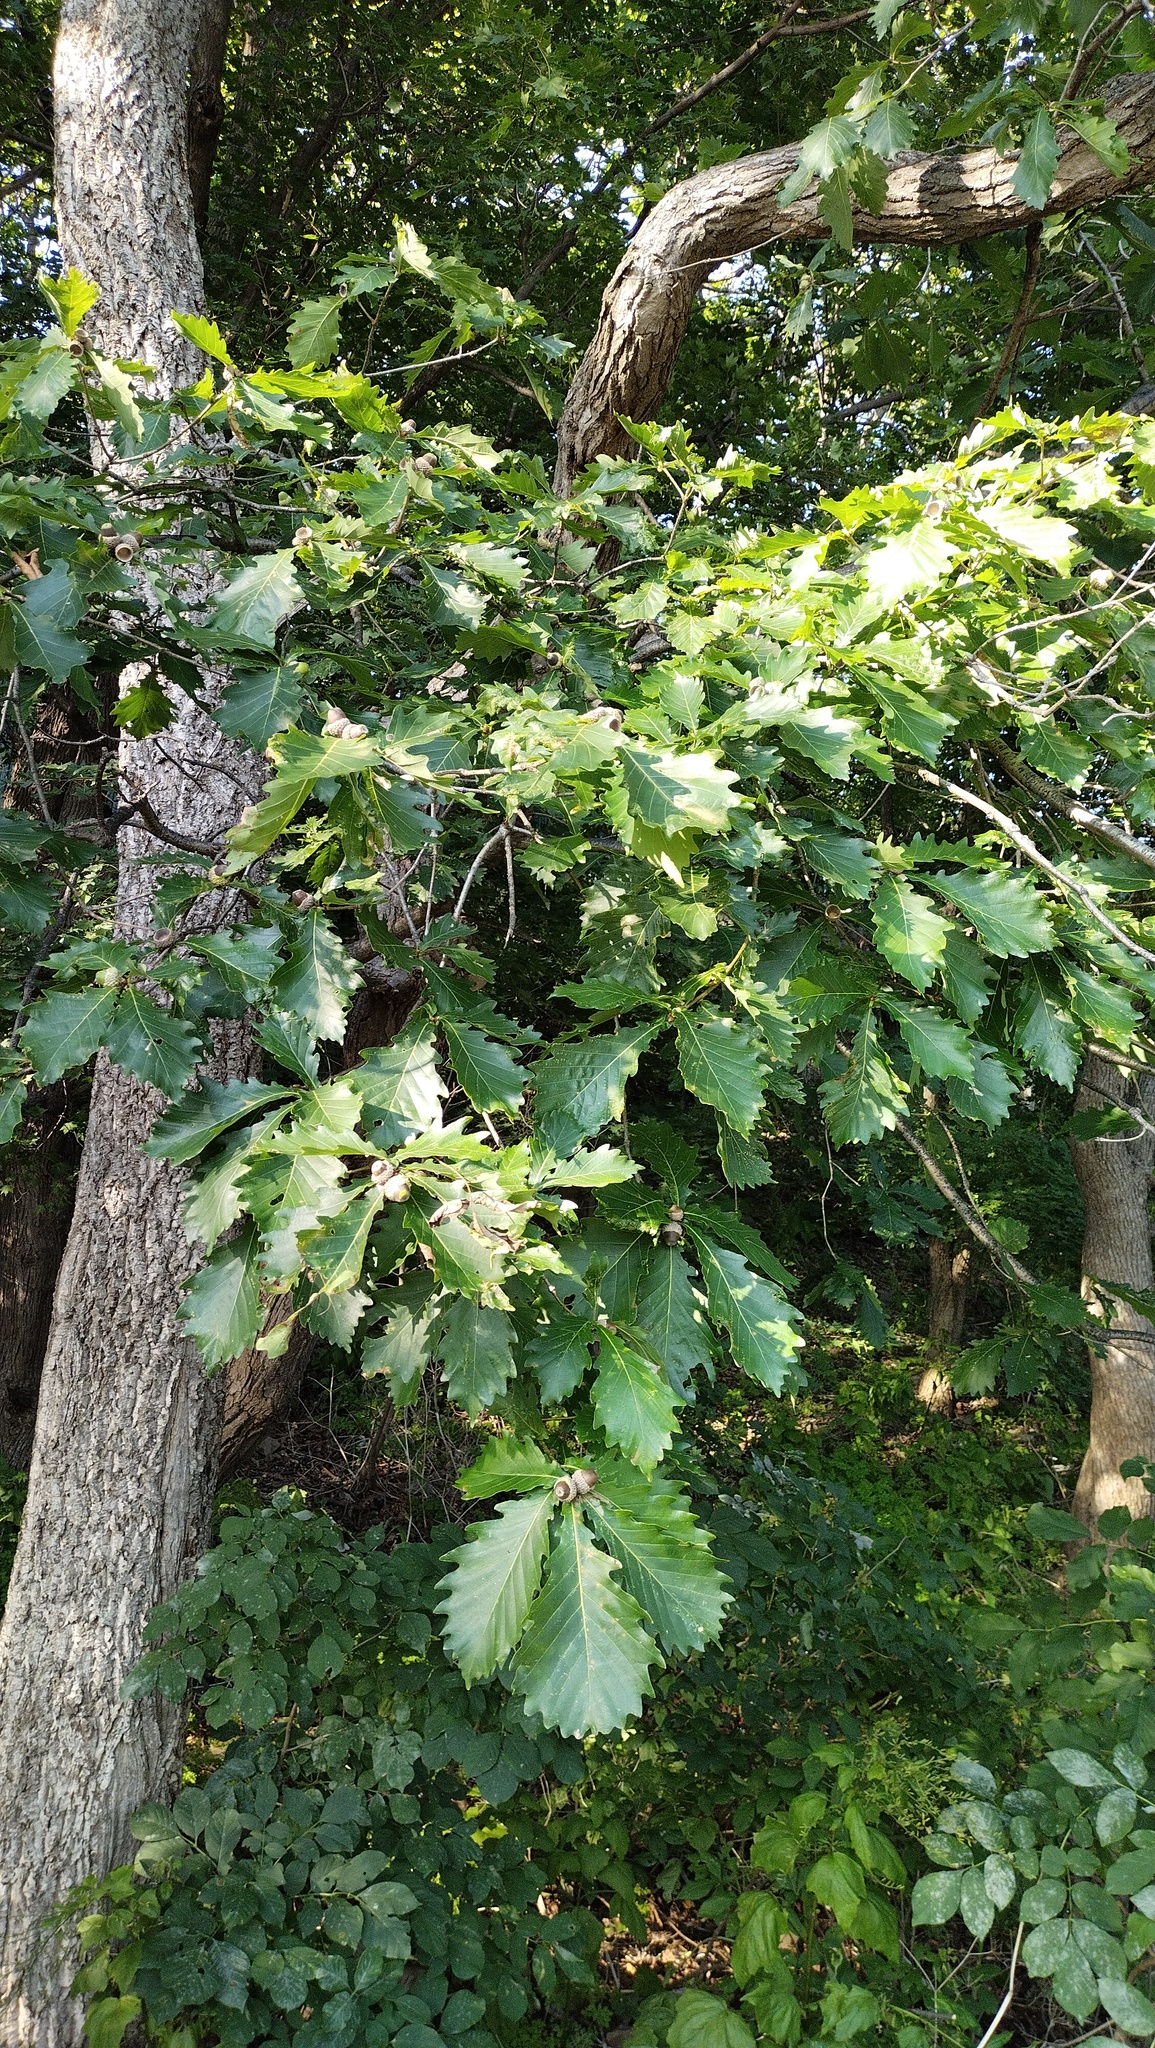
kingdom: Plantae
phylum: Tracheophyta
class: Magnoliopsida
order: Fagales
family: Fagaceae
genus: Quercus
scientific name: Quercus mongolica
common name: Mongolian oak
